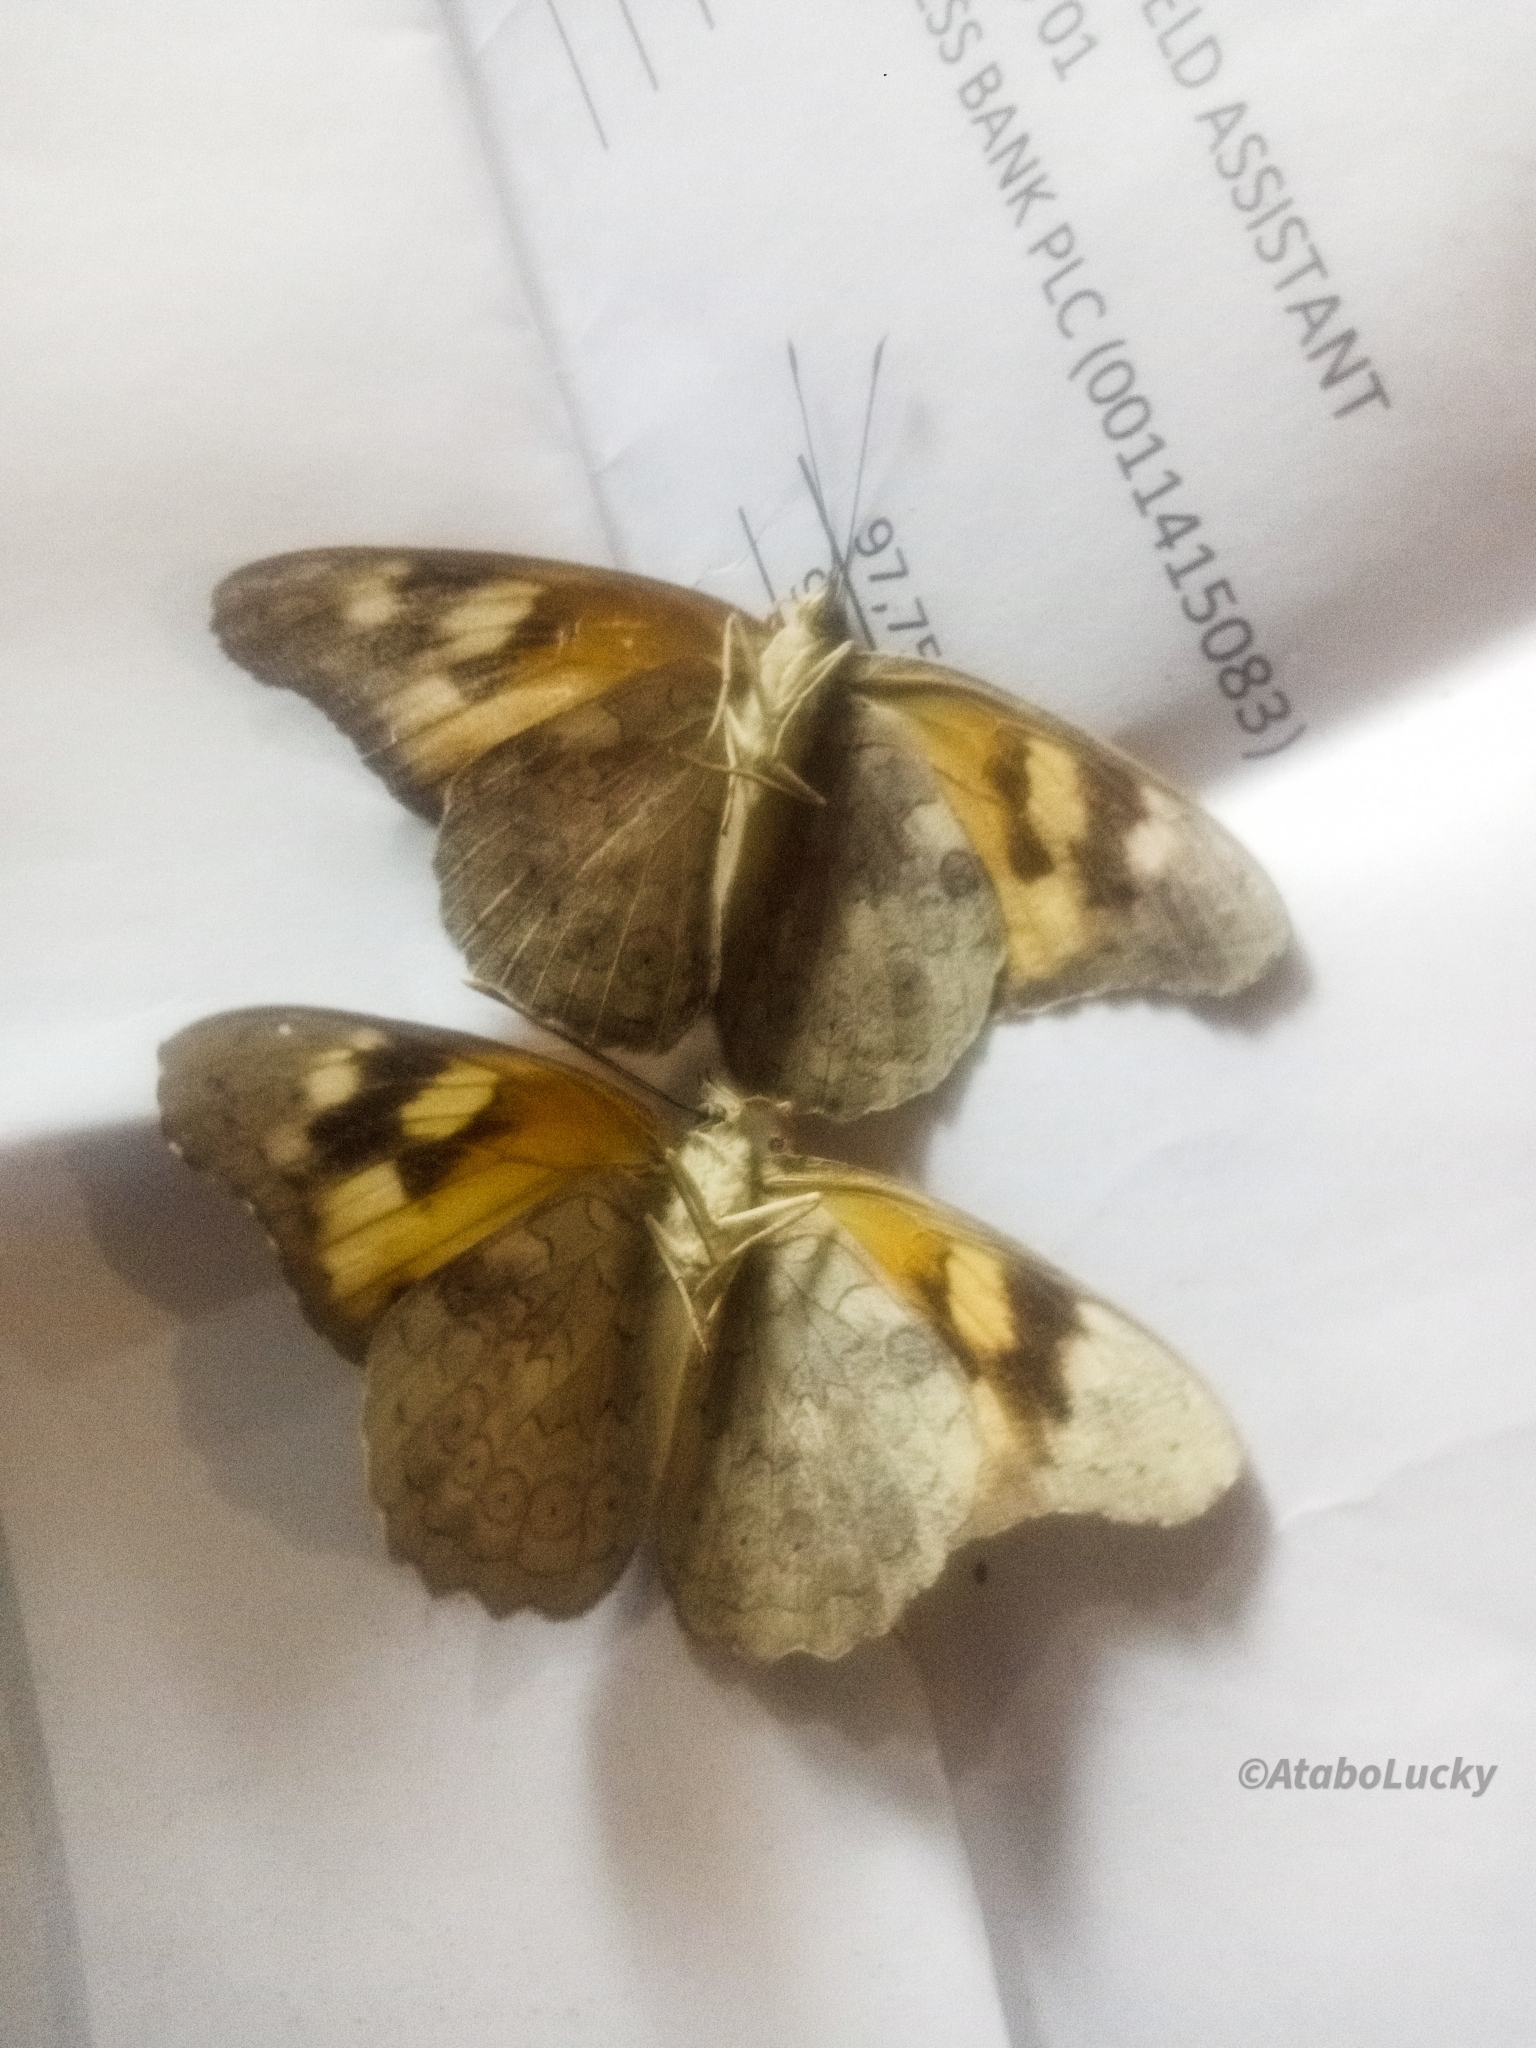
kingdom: Animalia
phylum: Arthropoda
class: Insecta
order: Lepidoptera
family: Nymphalidae
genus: Asterope
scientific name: Asterope umbrina
